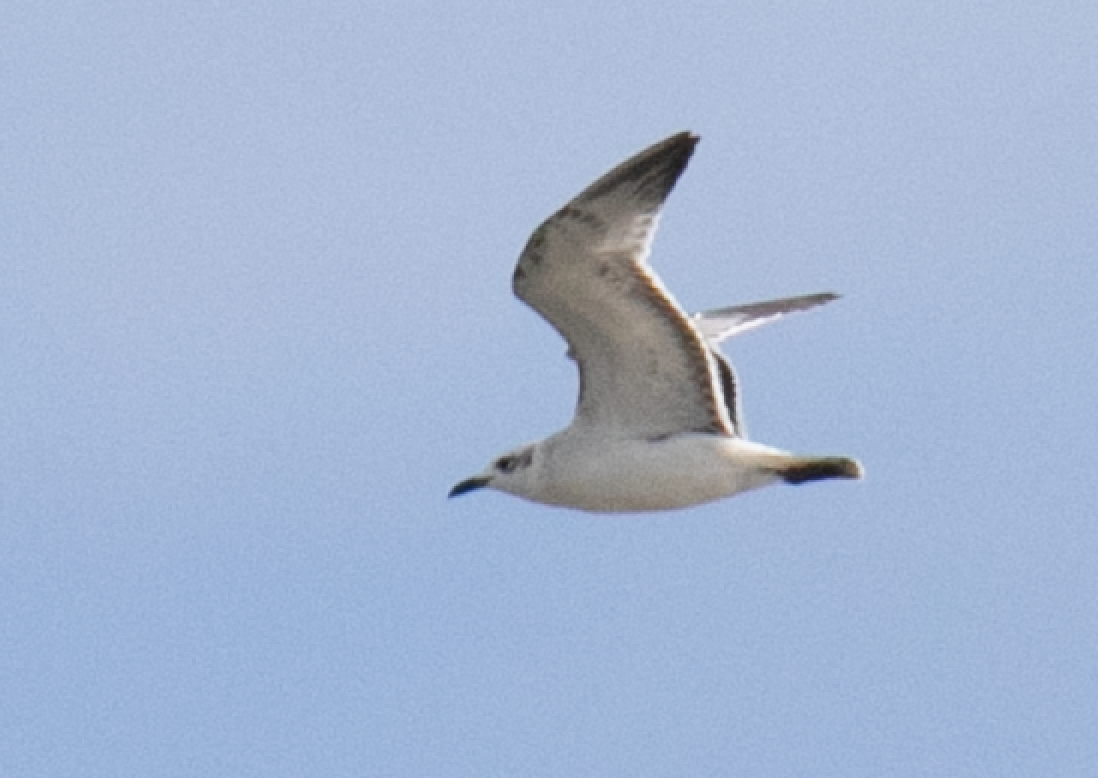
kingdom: Animalia
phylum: Chordata
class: Aves
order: Charadriiformes
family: Laridae
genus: Ichthyaetus
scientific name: Ichthyaetus melanocephalus
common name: Mediterranean gull
